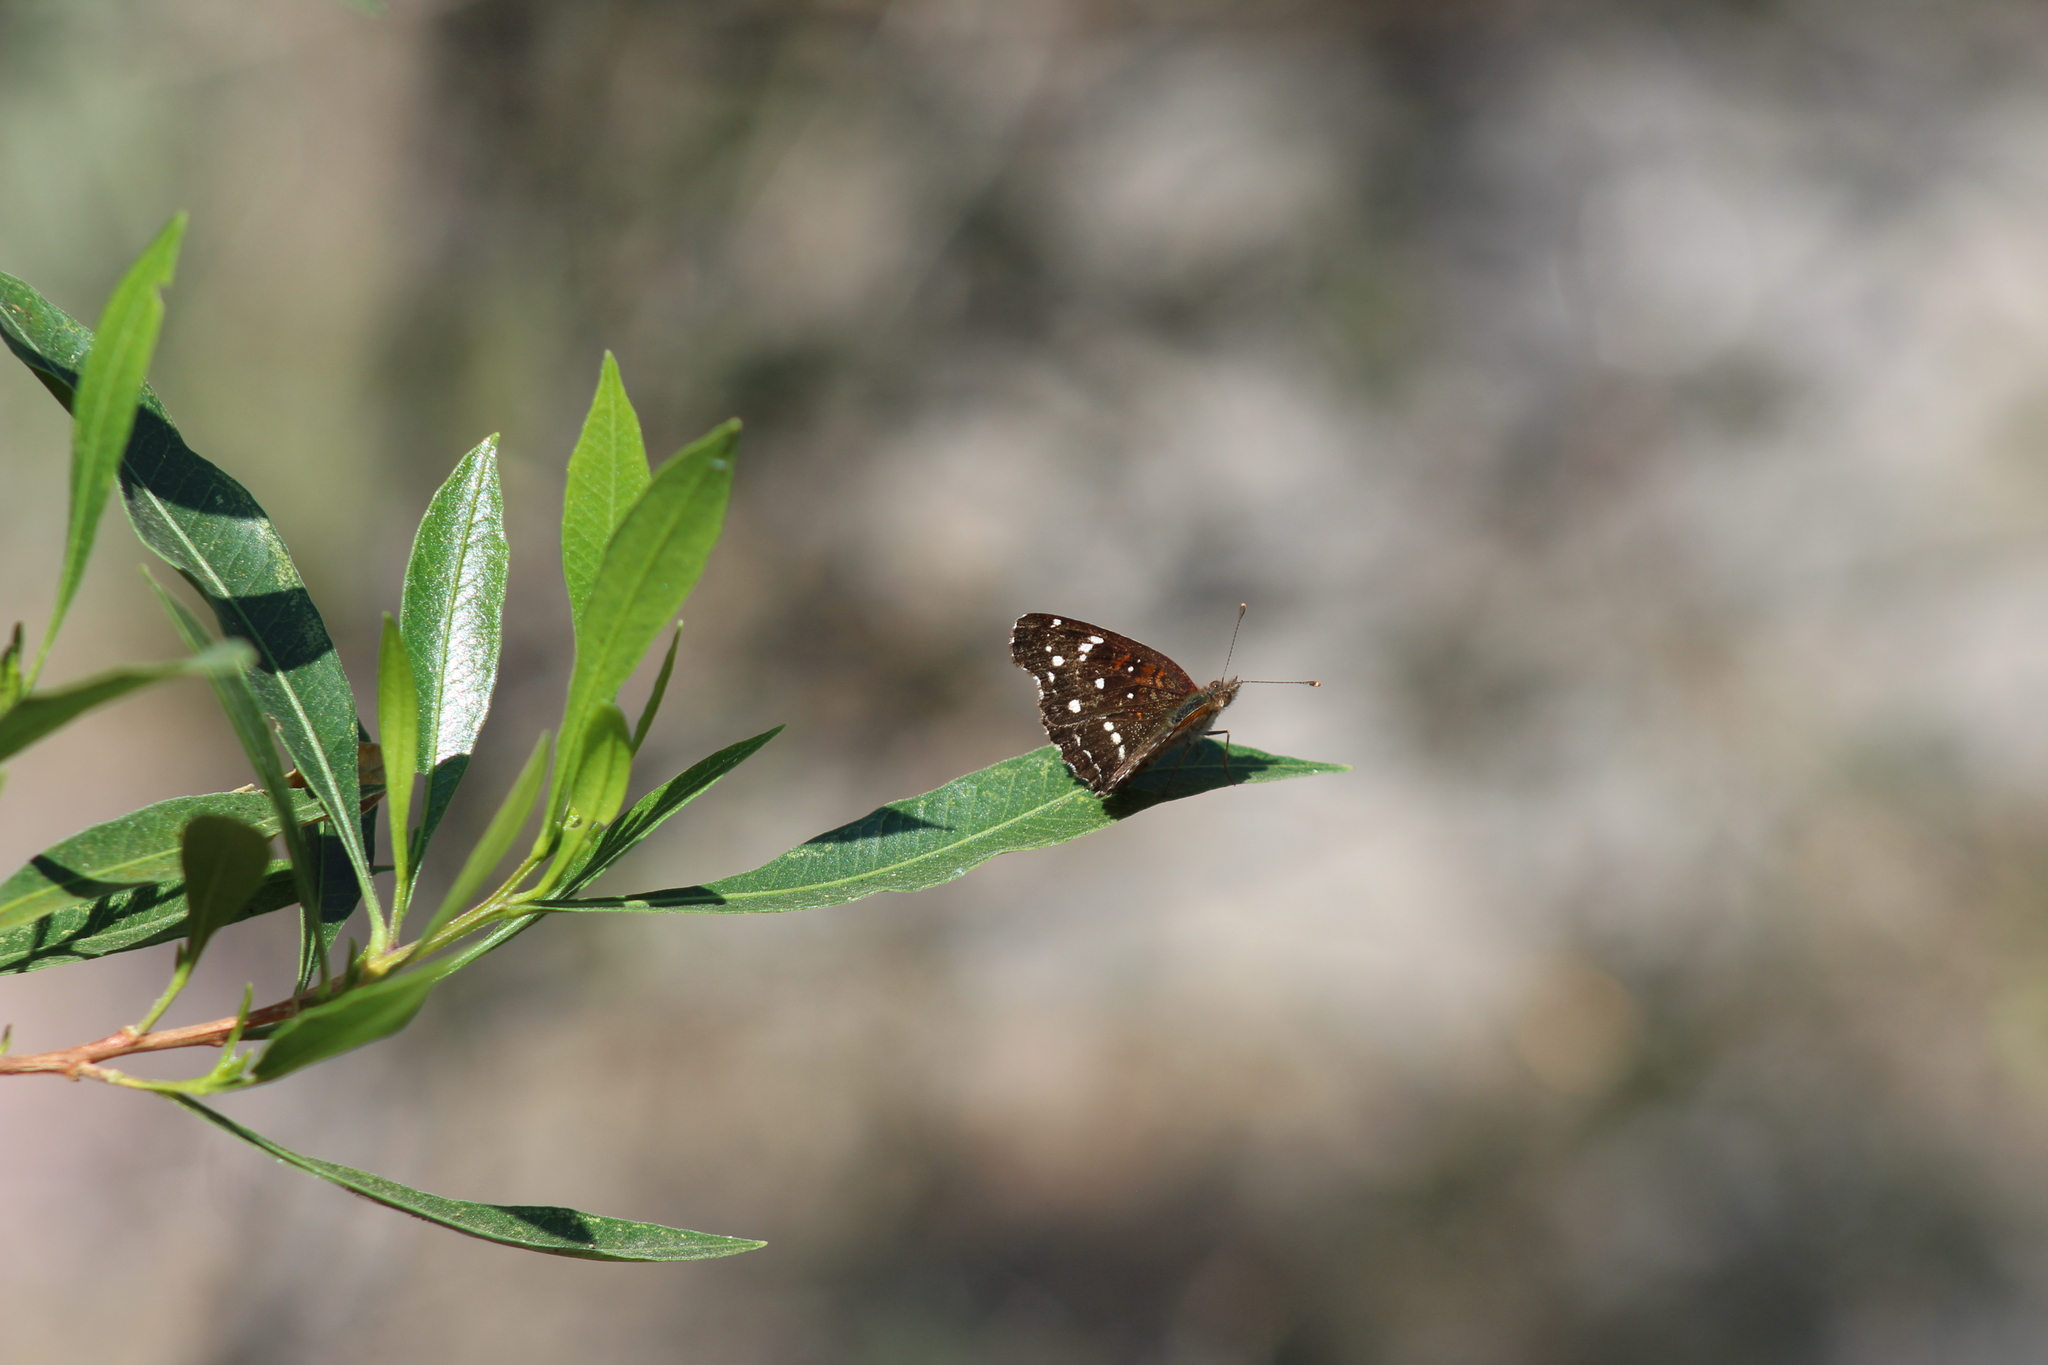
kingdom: Animalia
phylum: Arthropoda
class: Insecta
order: Lepidoptera
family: Nymphalidae
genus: Anthanassa
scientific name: Anthanassa texana
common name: Texan crescent
